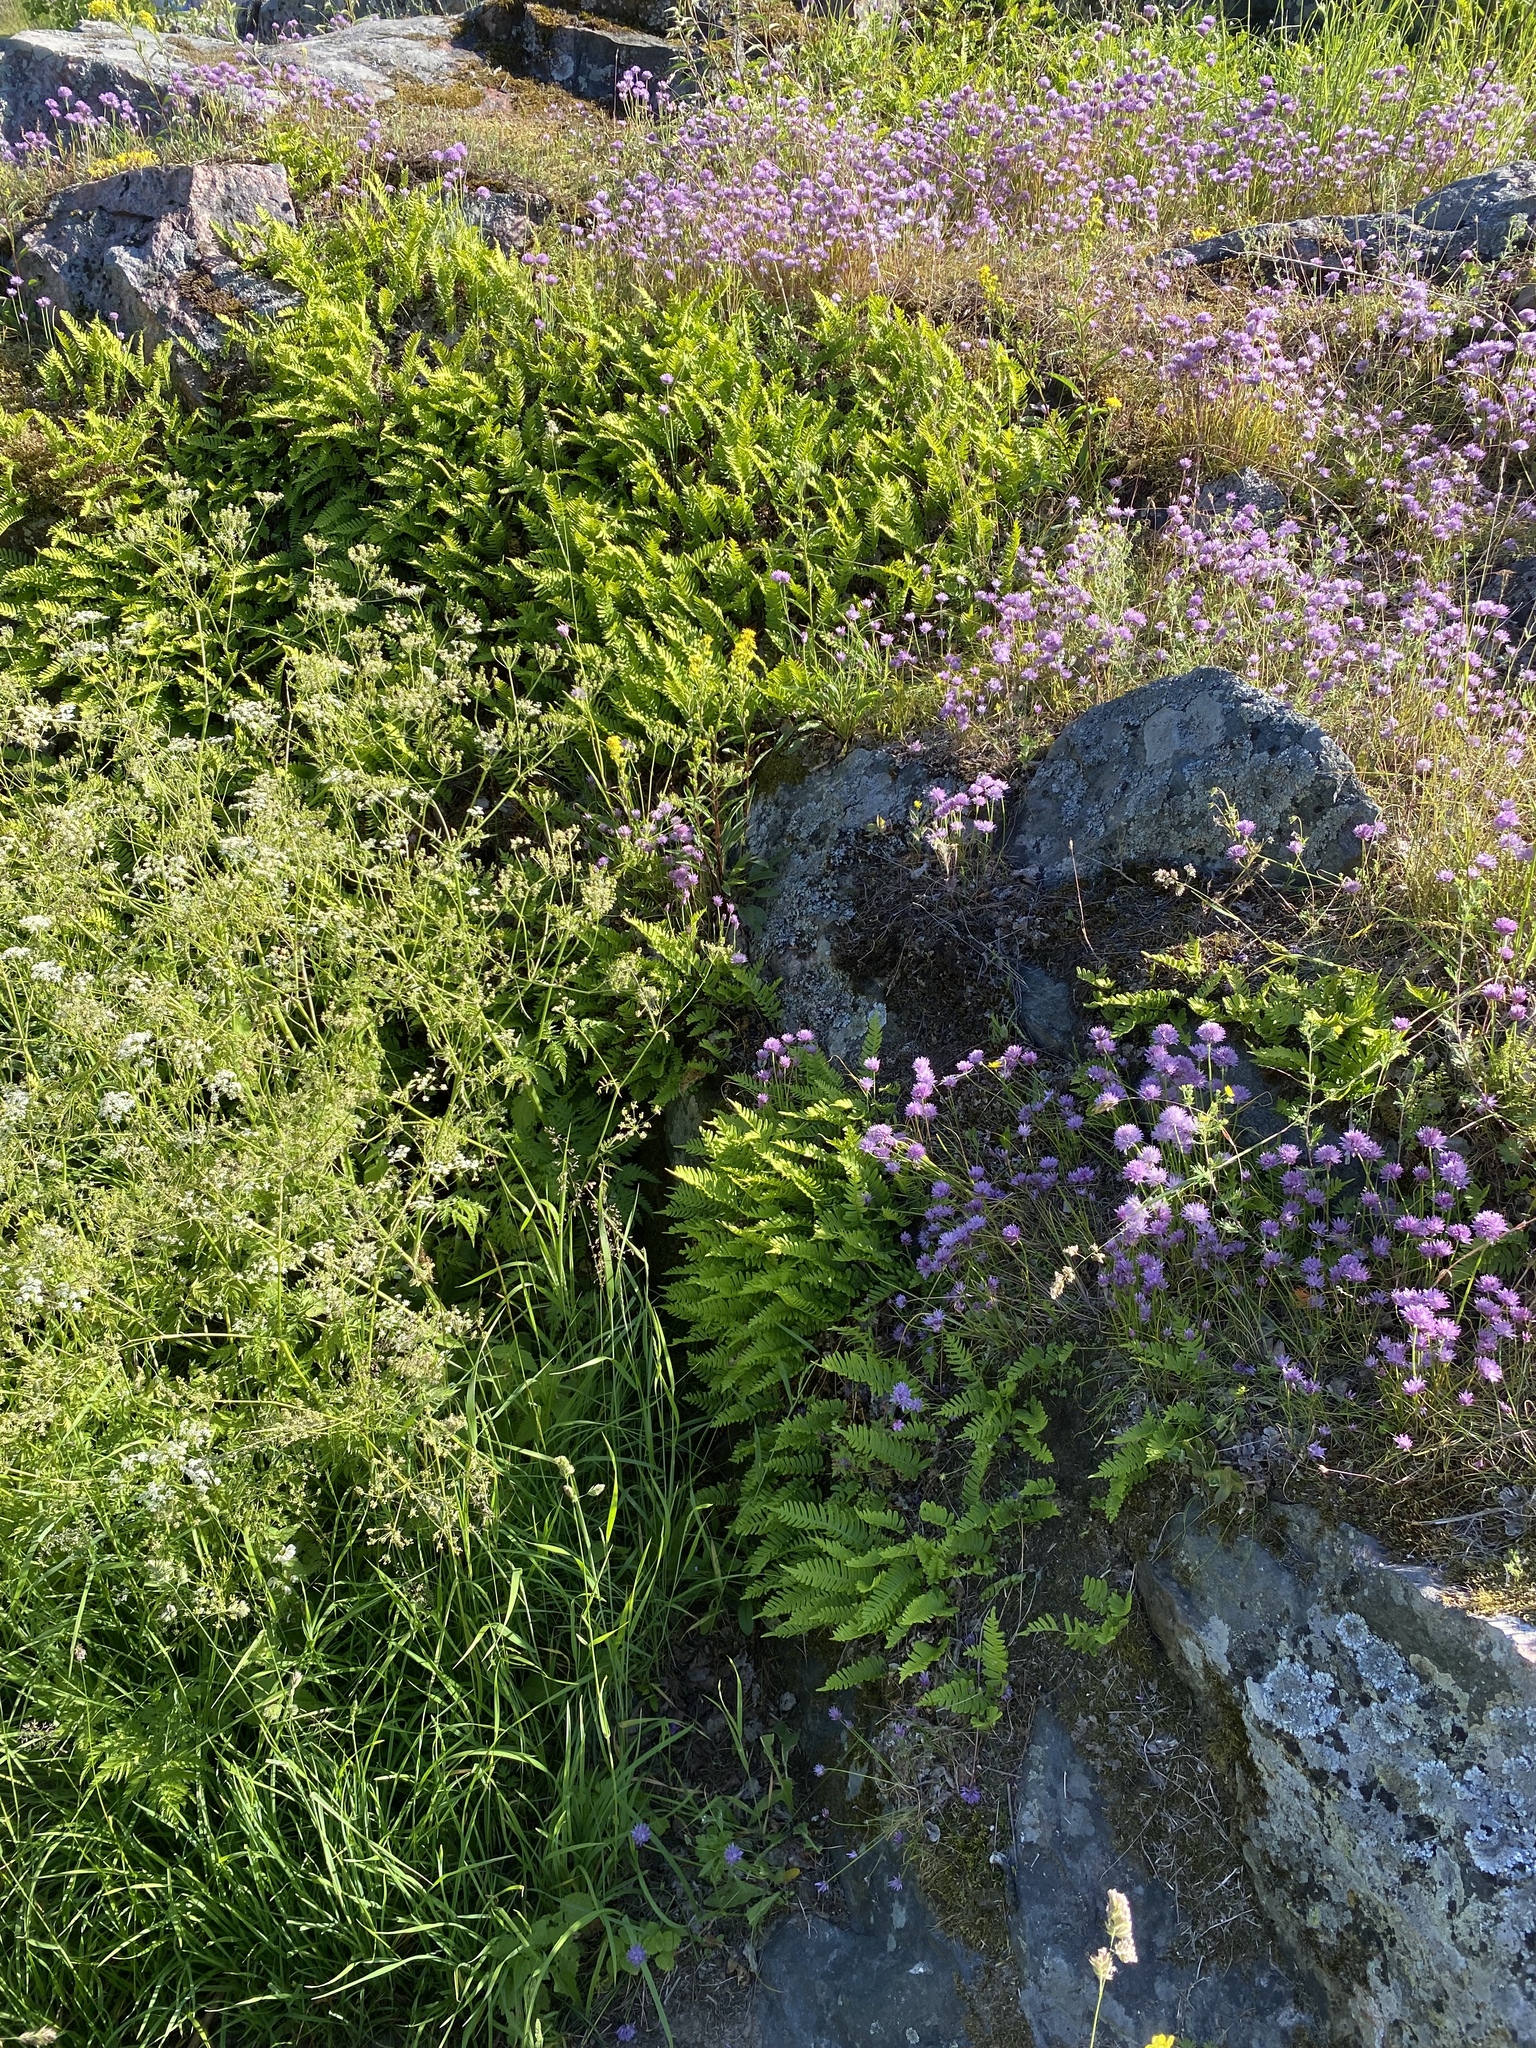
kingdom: Plantae
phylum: Tracheophyta
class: Polypodiopsida
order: Polypodiales
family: Polypodiaceae
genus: Polypodium
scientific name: Polypodium vulgare
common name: Common polypody
